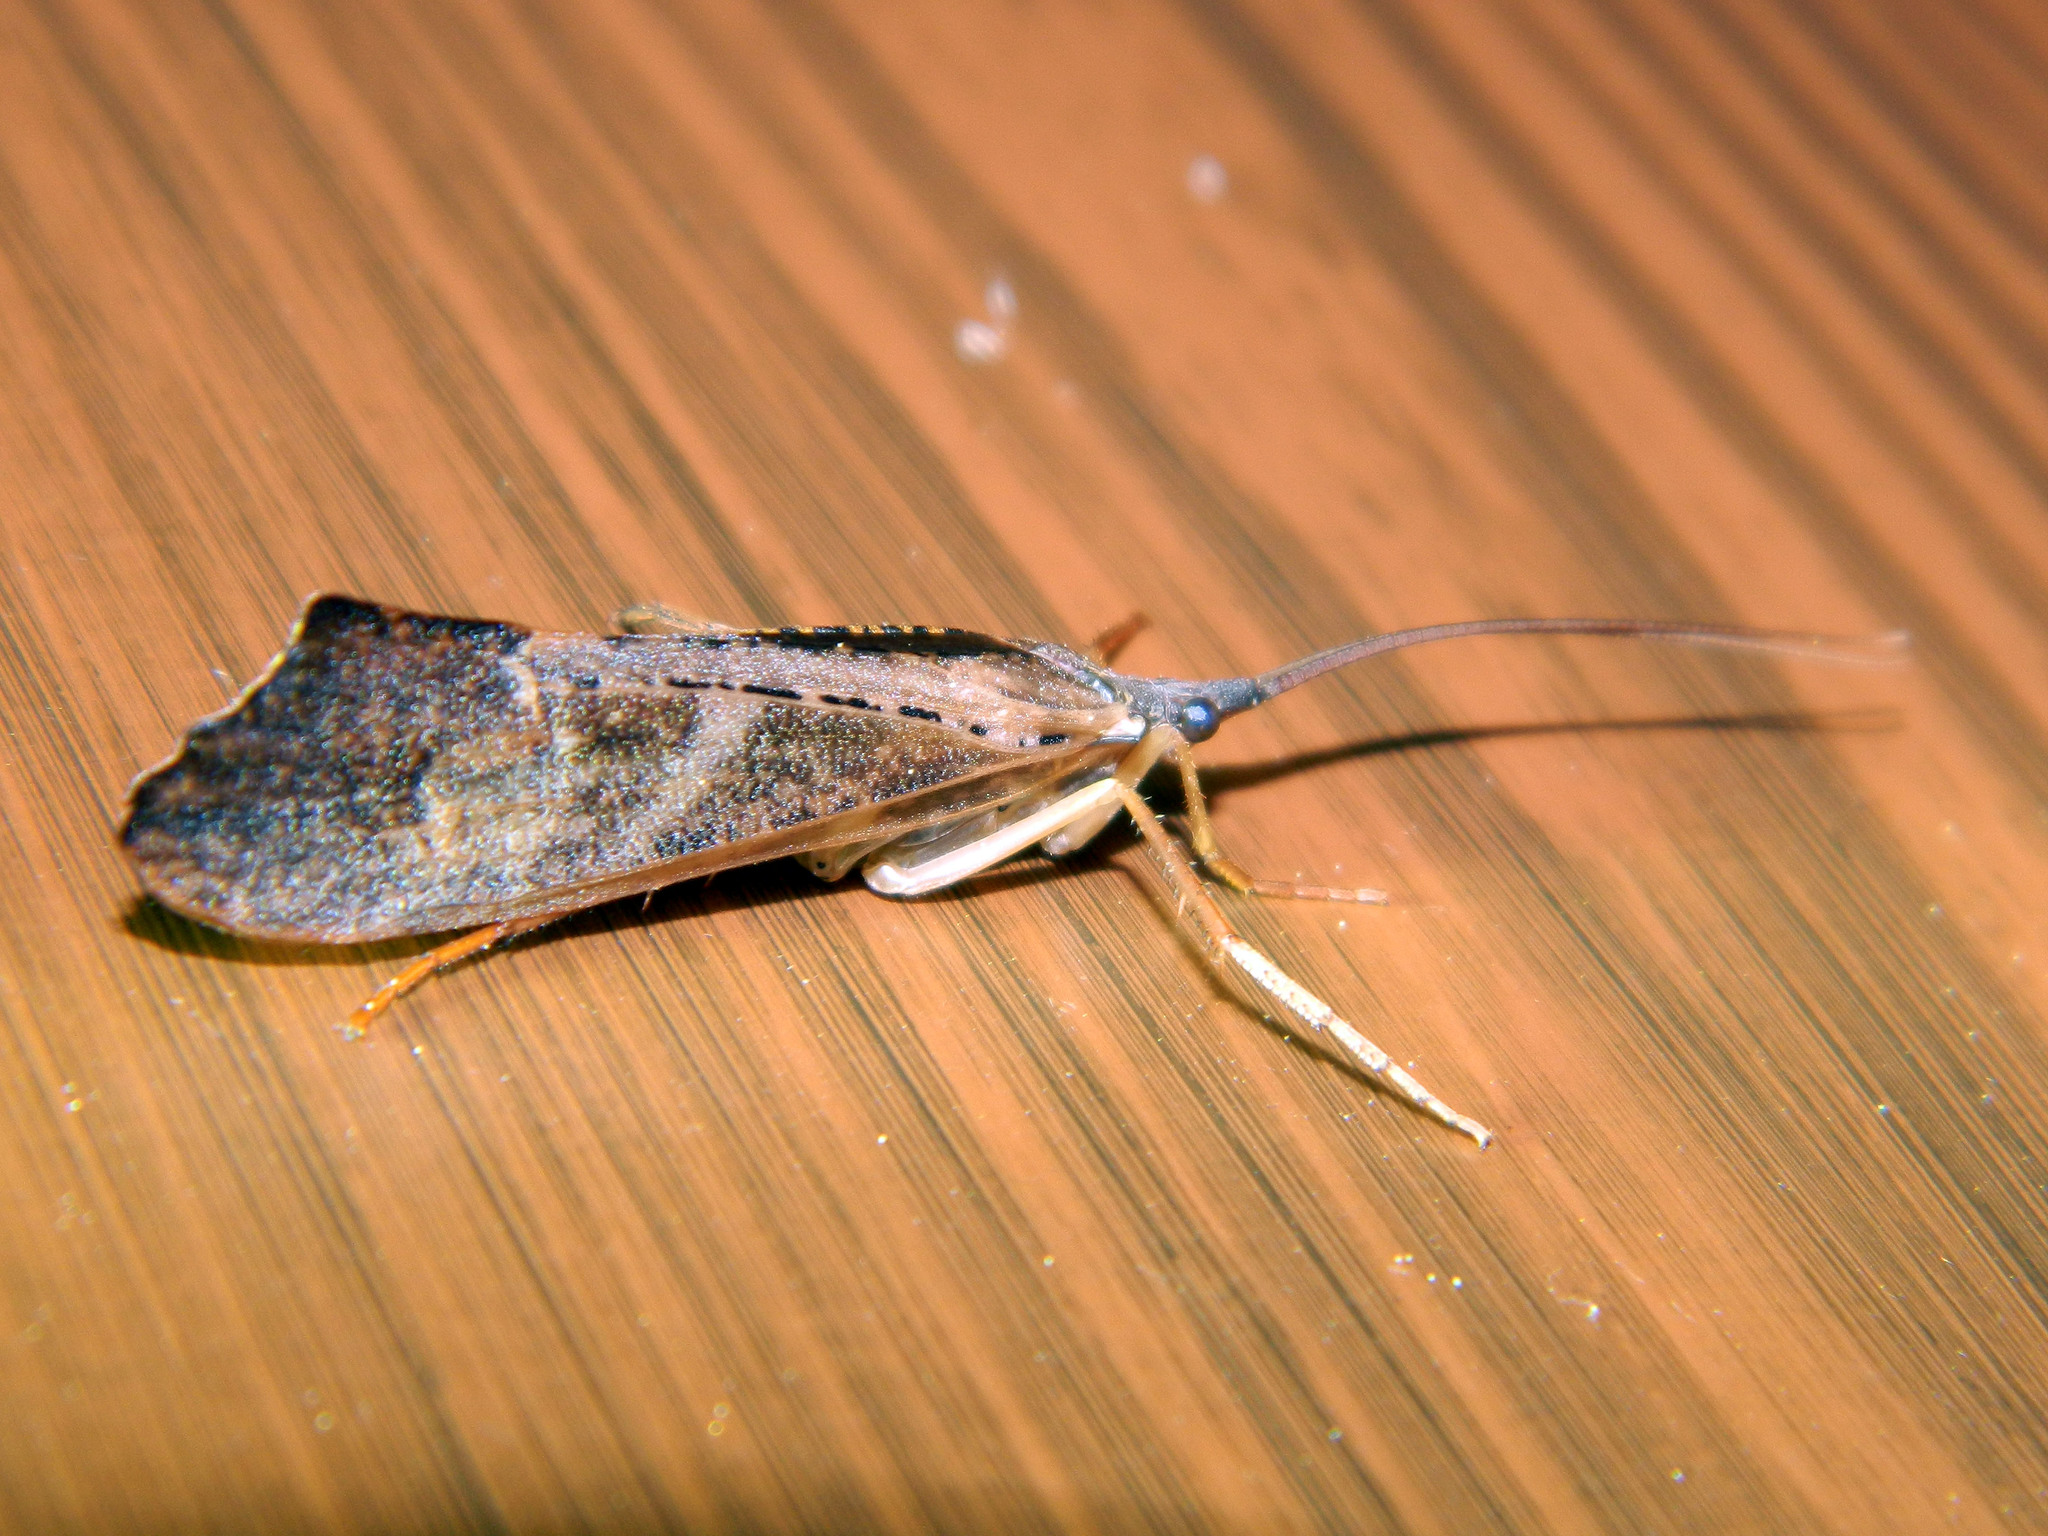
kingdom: Animalia
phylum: Arthropoda
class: Insecta
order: Trichoptera
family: Limnephilidae
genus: Nemotaulius
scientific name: Nemotaulius hostilis
